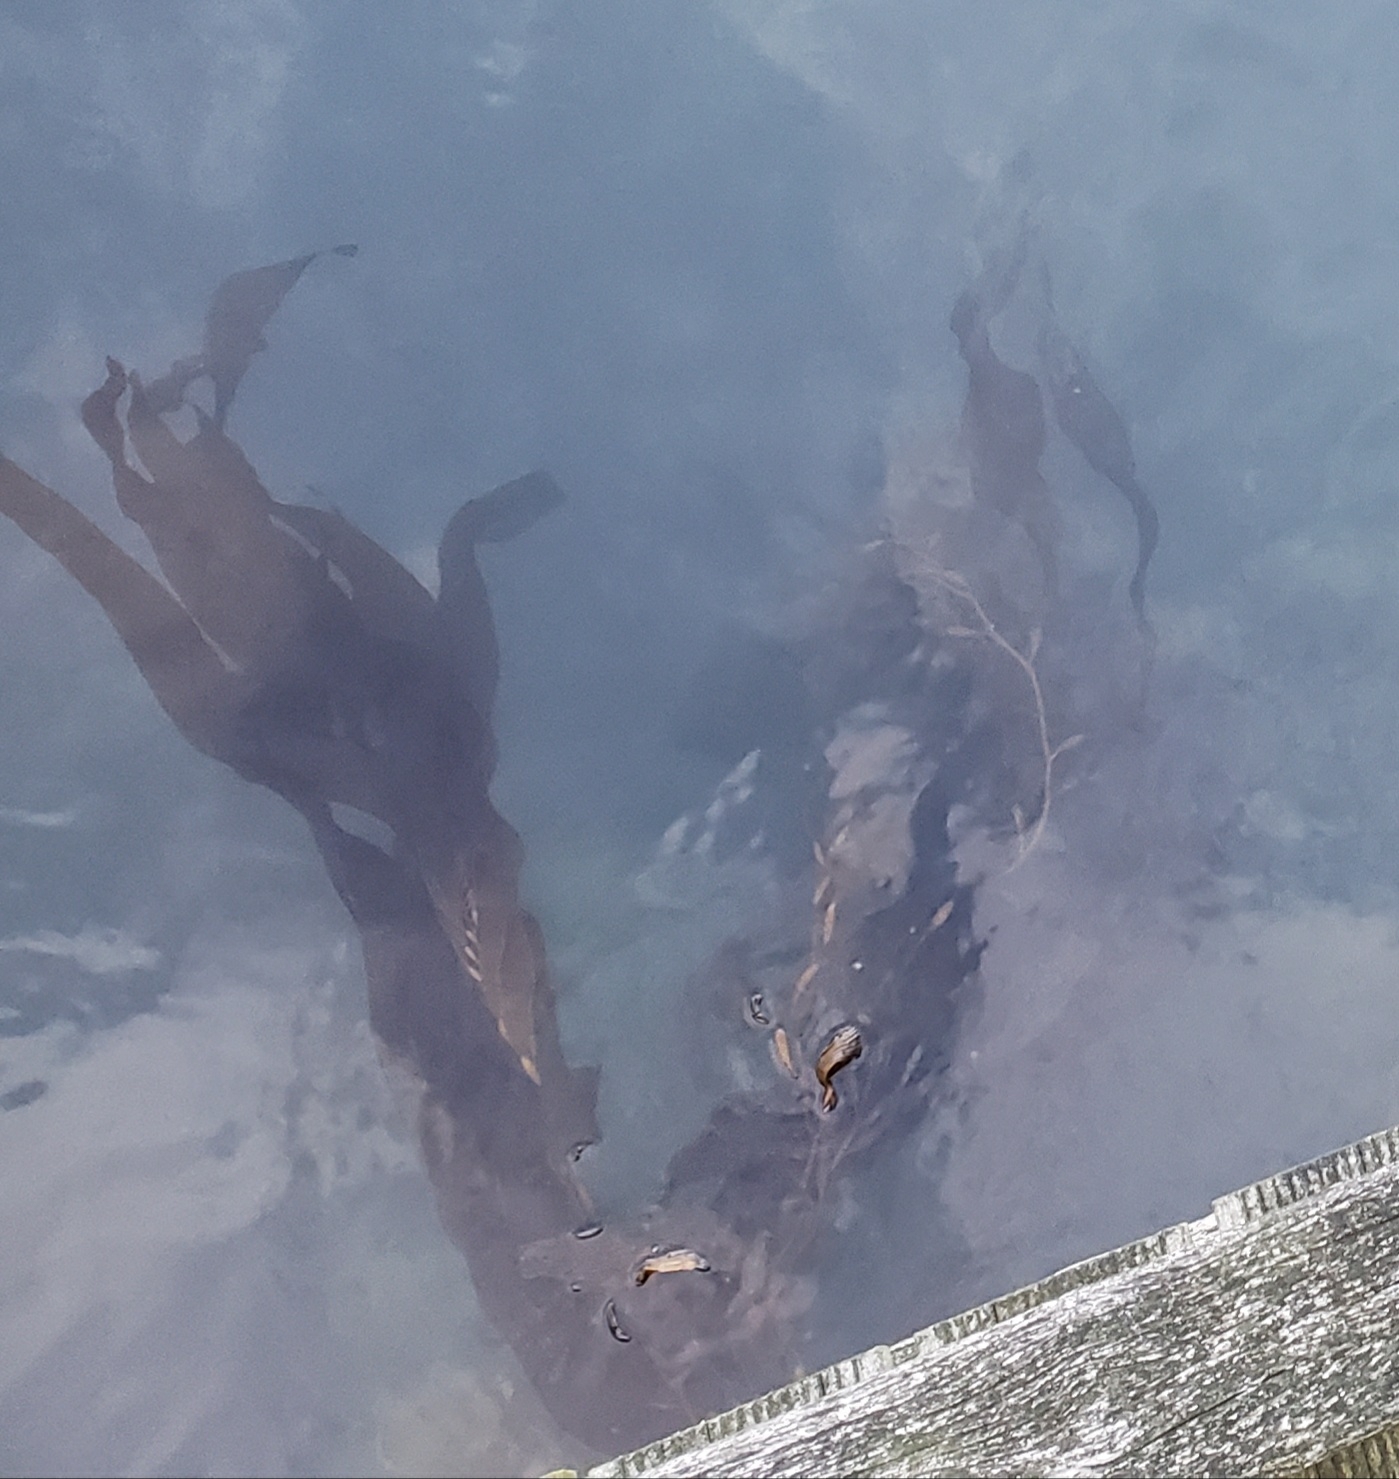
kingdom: Chromista
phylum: Ochrophyta
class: Phaeophyceae
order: Laminariales
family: Laminariaceae
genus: Macrocystis
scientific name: Macrocystis pyrifera
